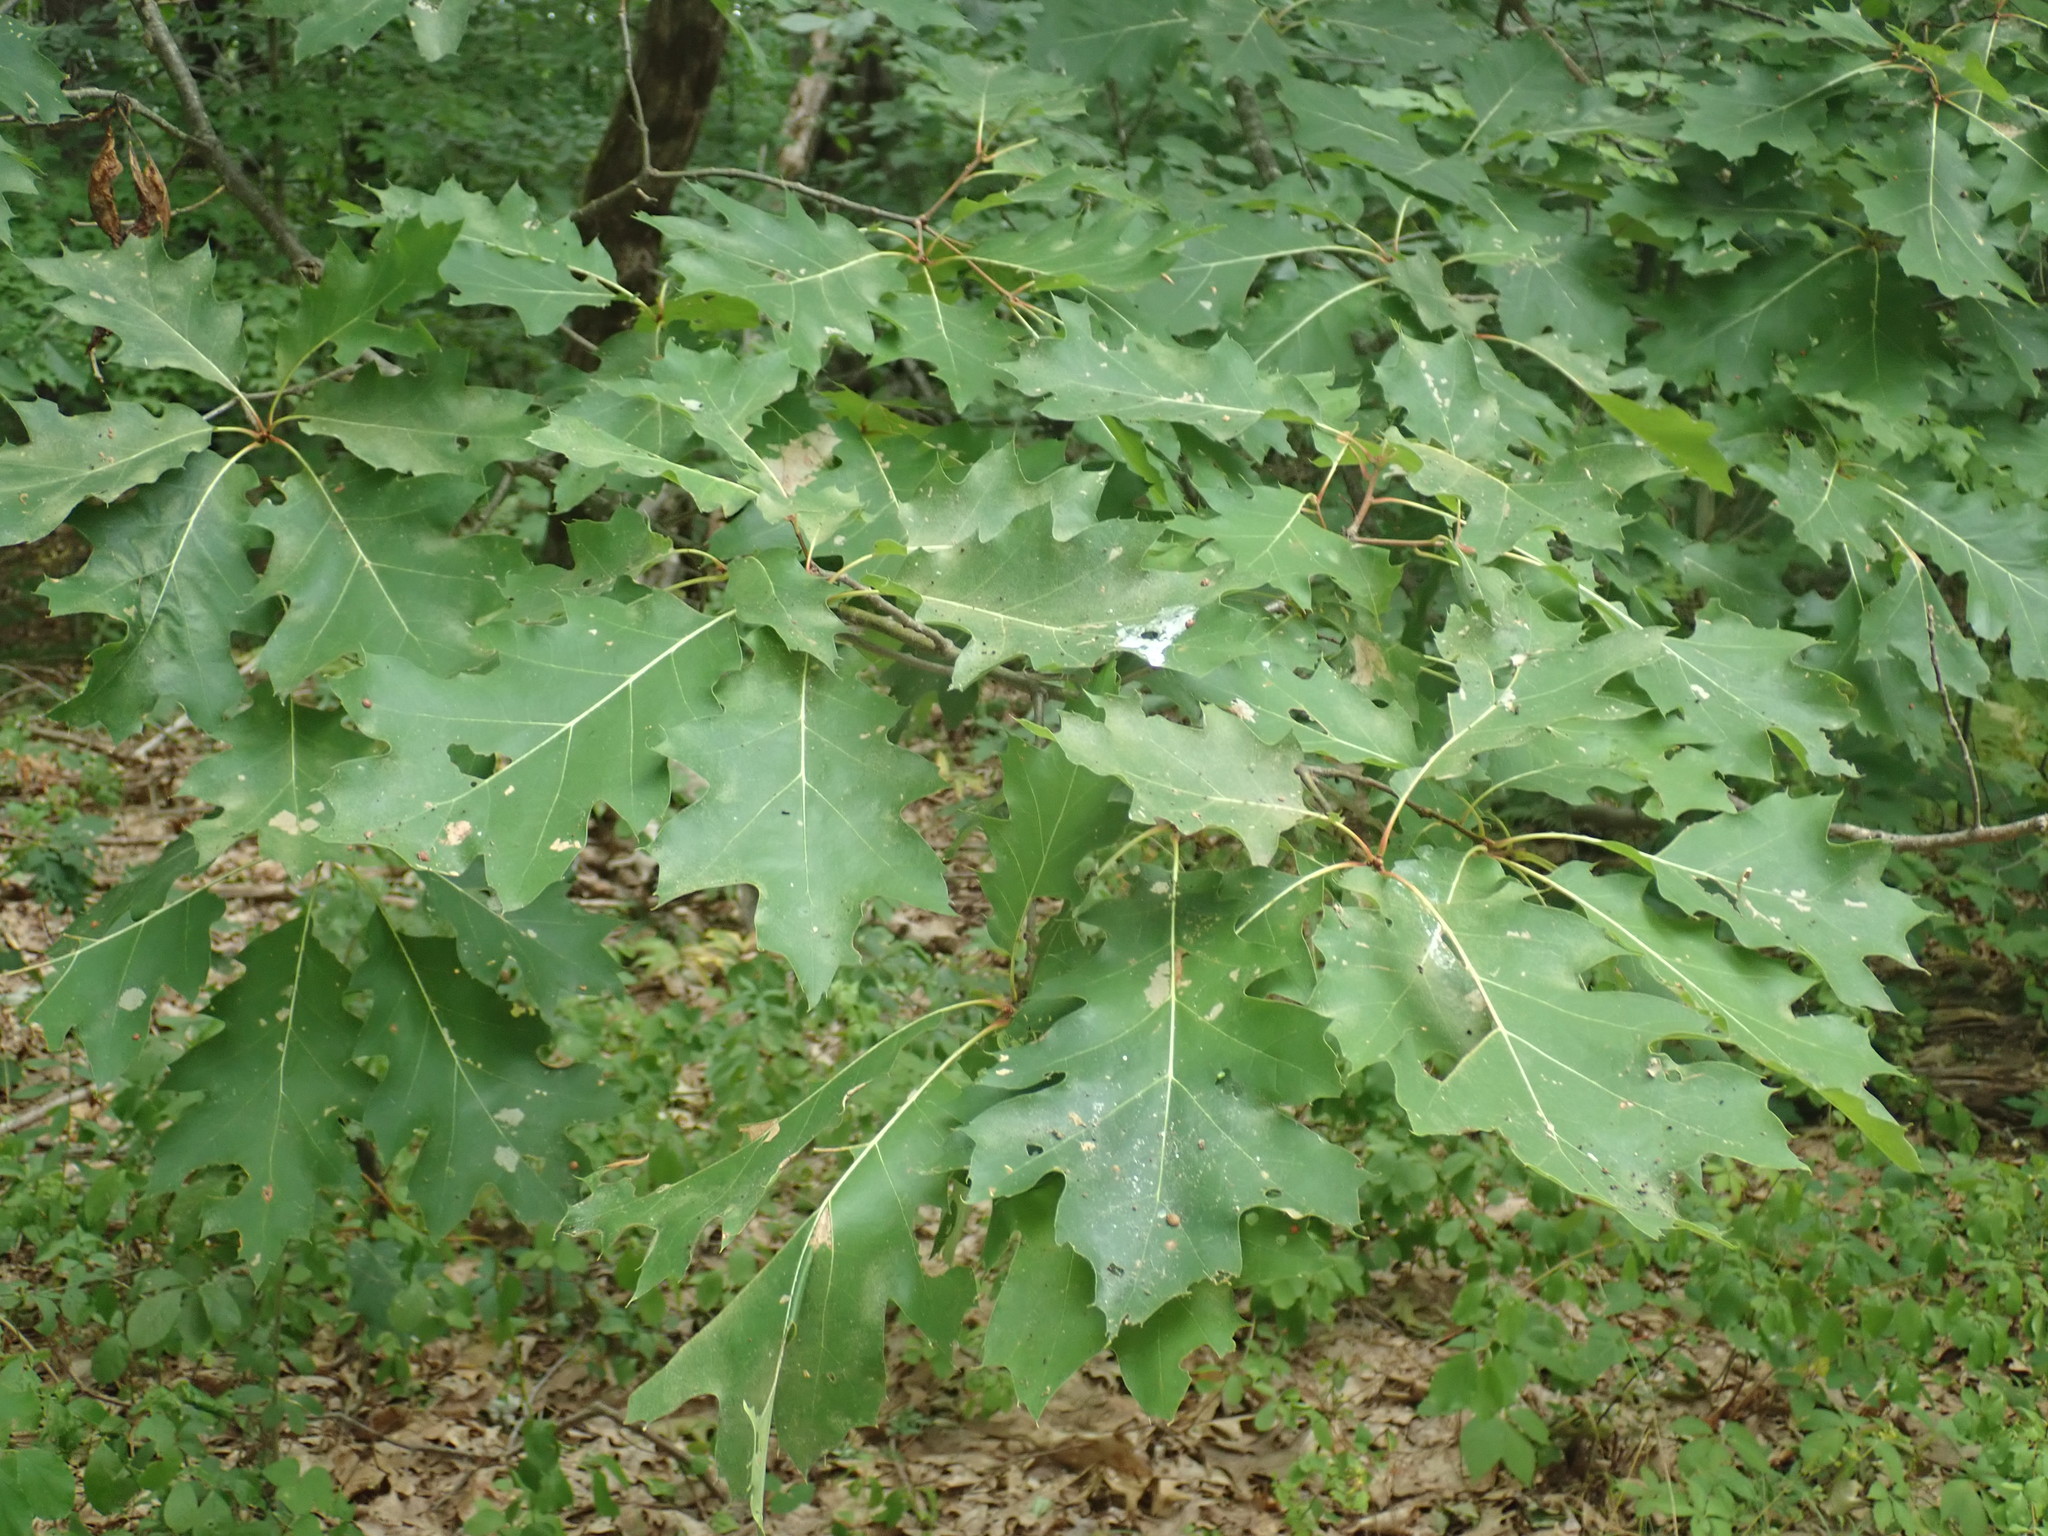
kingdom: Plantae
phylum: Tracheophyta
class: Magnoliopsida
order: Fagales
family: Fagaceae
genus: Quercus
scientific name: Quercus rubra
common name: Red oak
